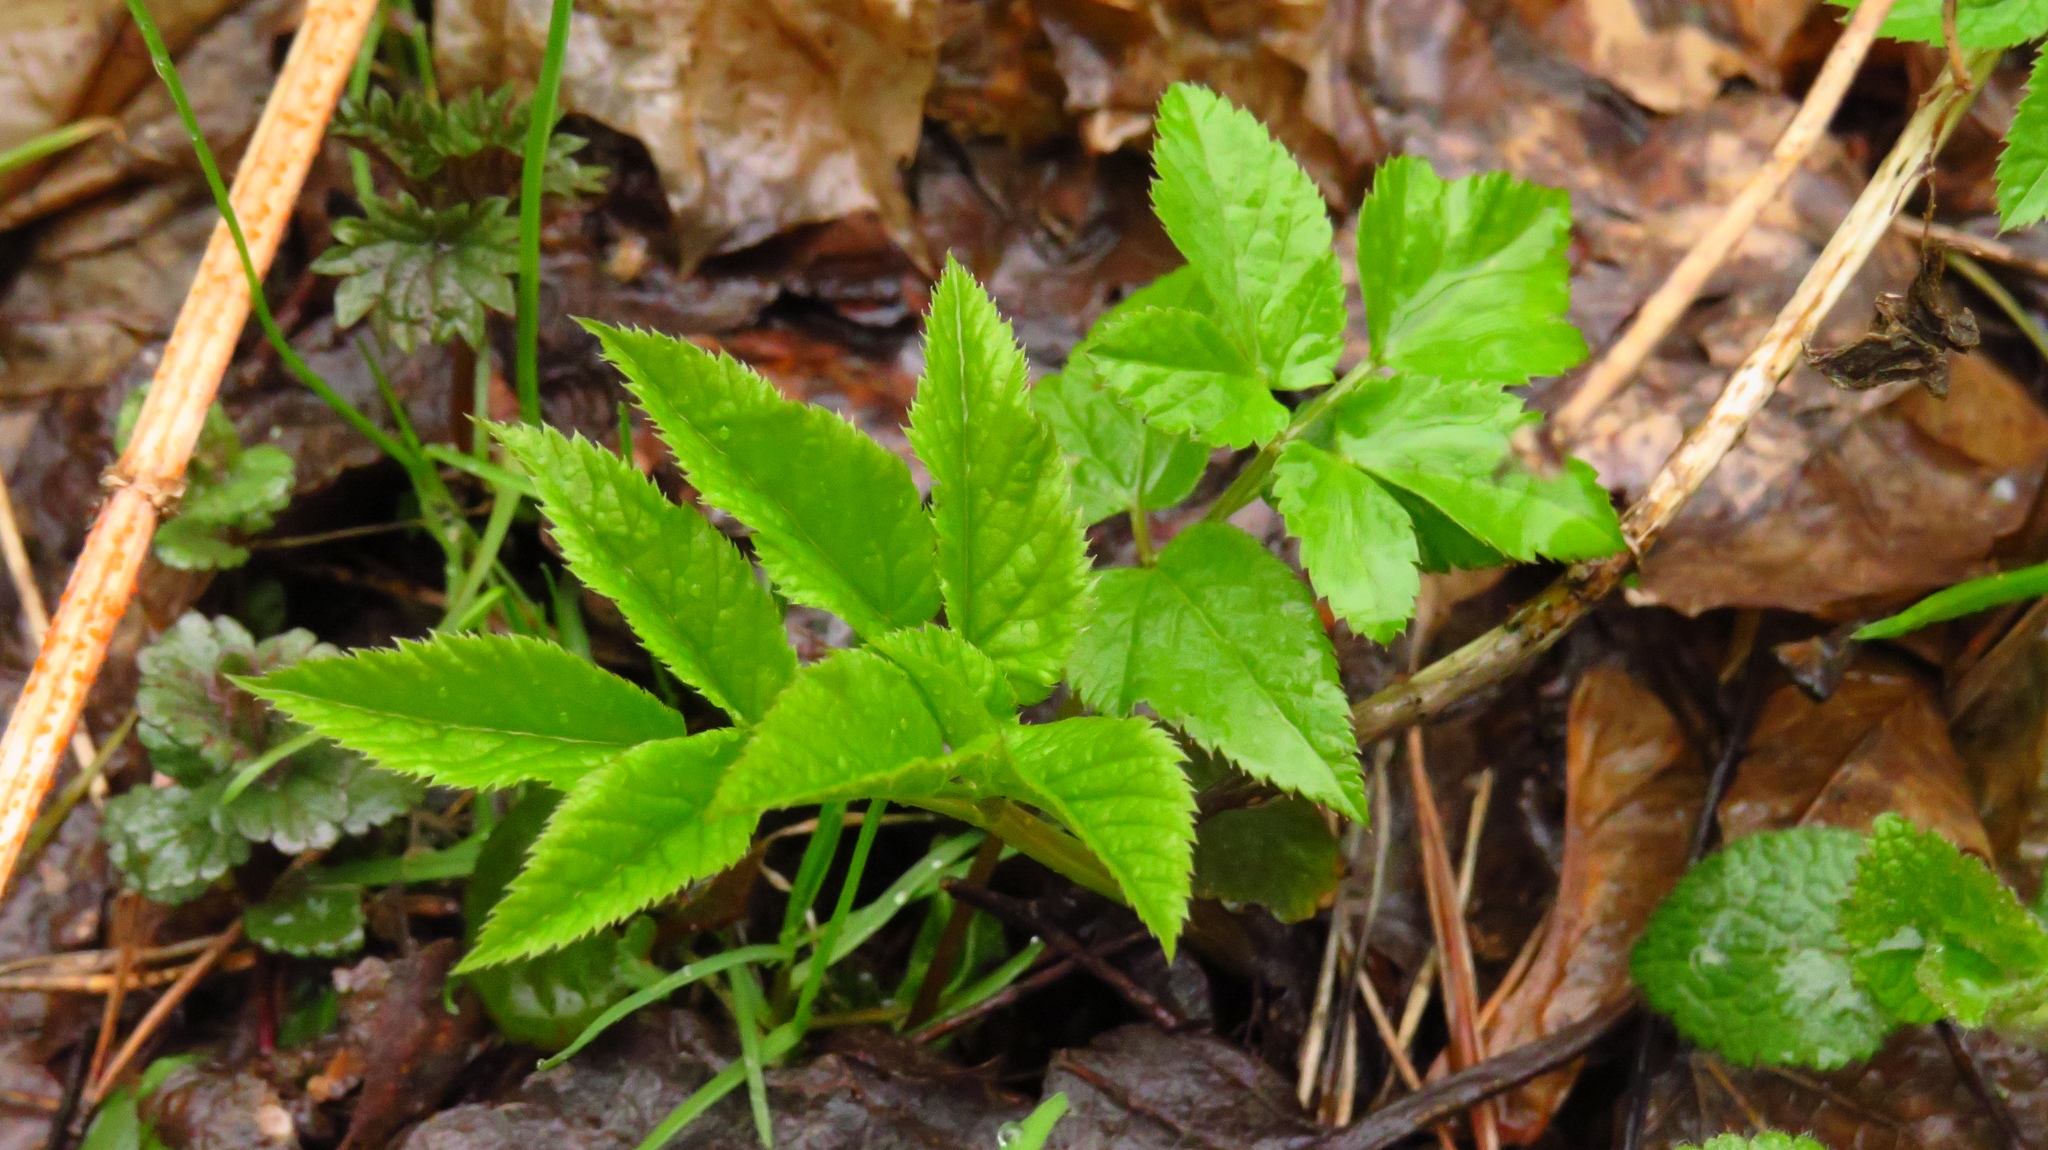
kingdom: Plantae
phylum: Tracheophyta
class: Magnoliopsida
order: Apiales
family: Apiaceae
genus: Aegopodium
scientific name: Aegopodium podagraria
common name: Ground-elder
